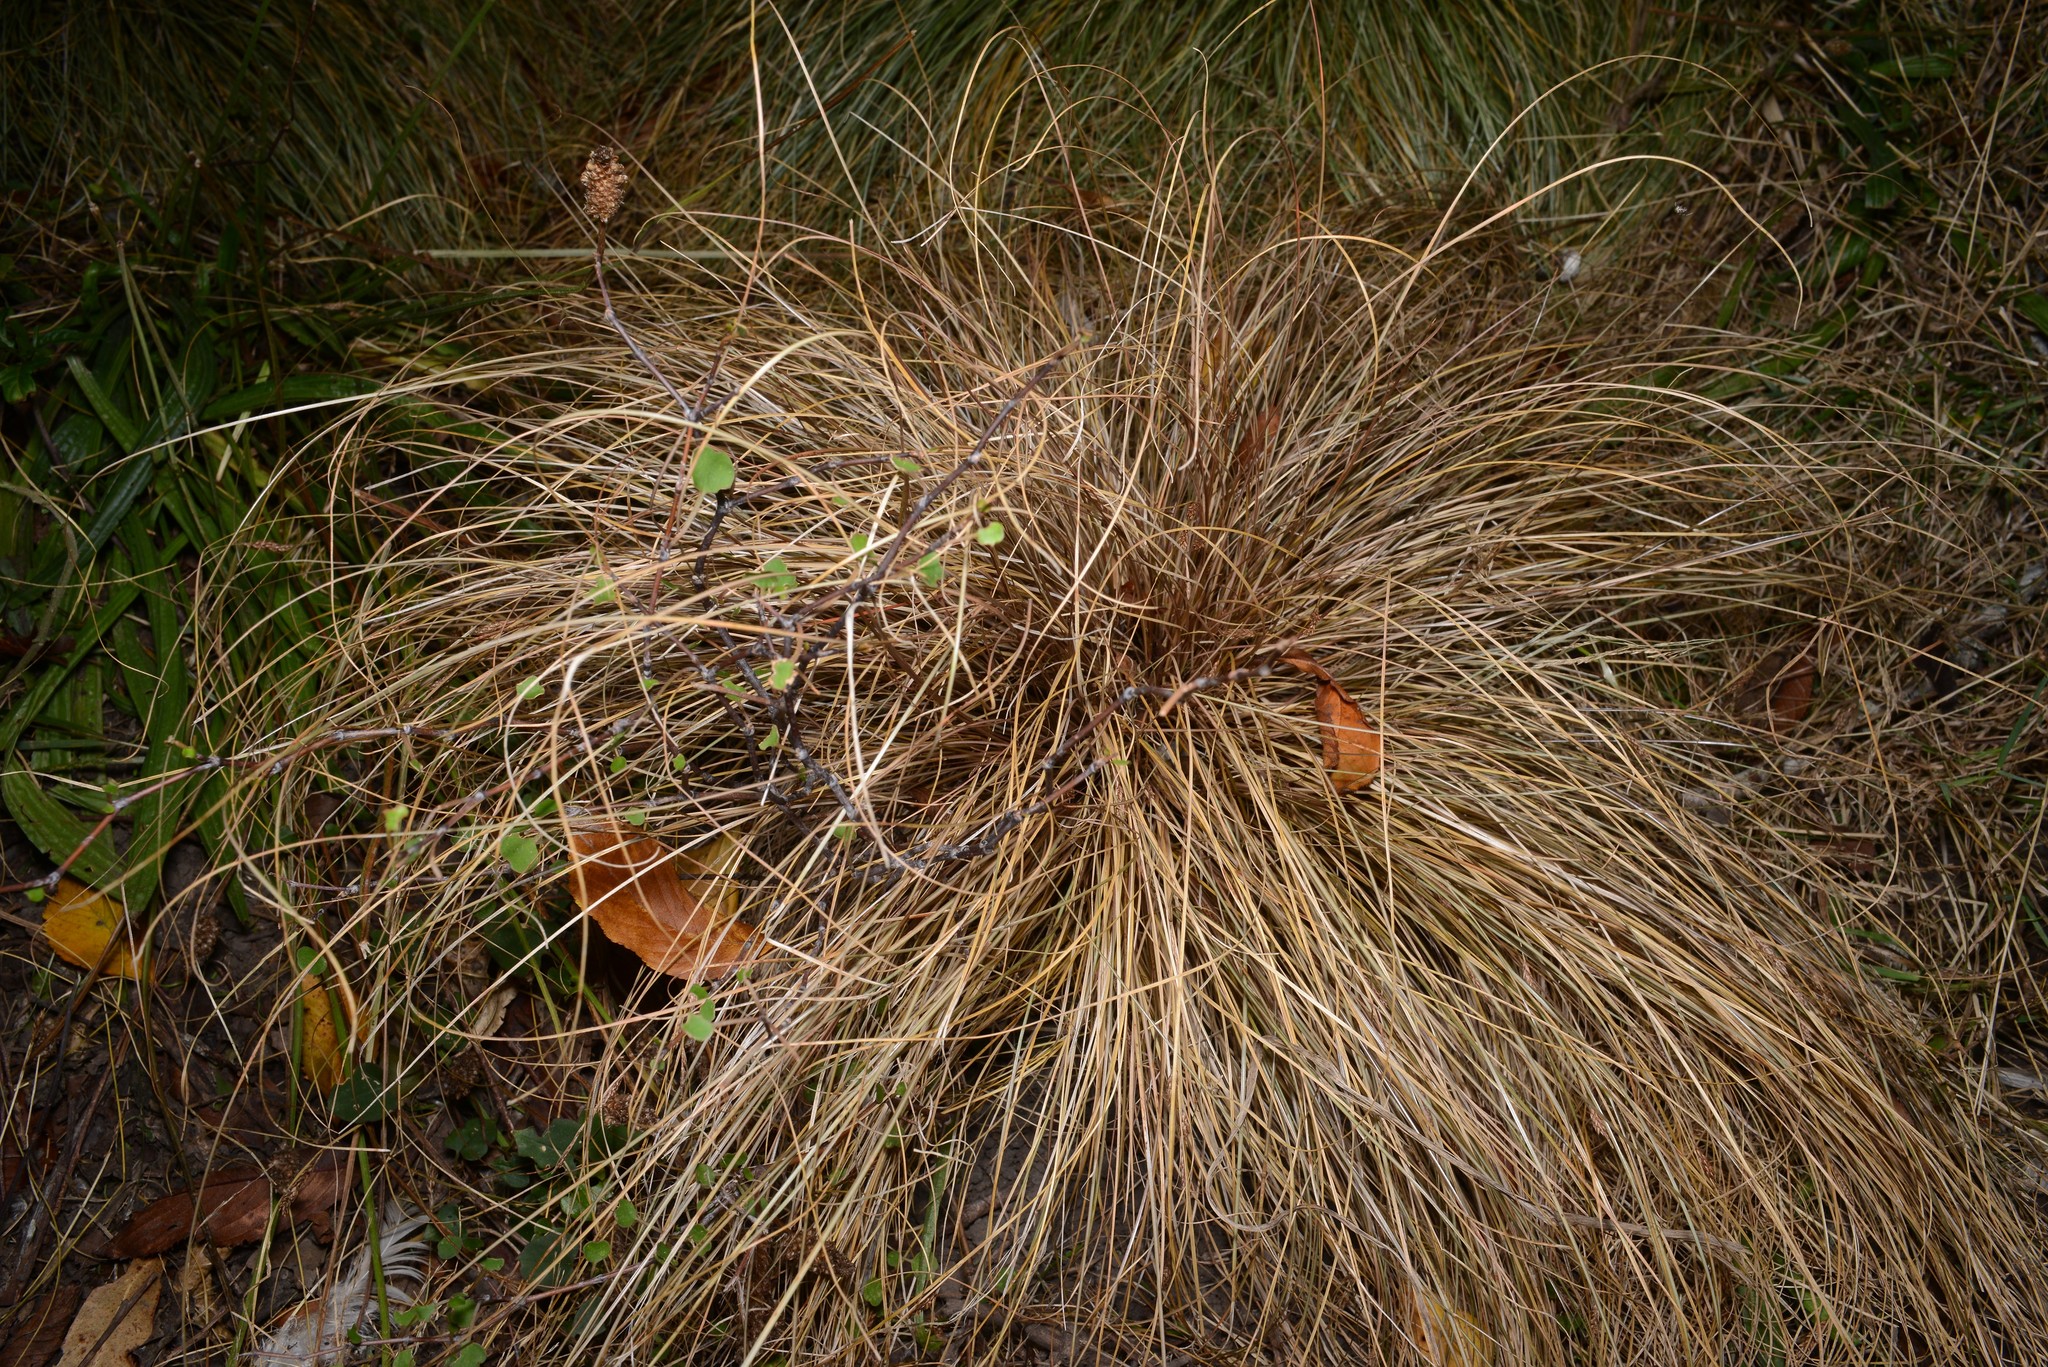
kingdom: Plantae
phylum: Tracheophyta
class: Liliopsida
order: Poales
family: Cyperaceae
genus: Carex
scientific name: Carex comans
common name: Longwood tussock
